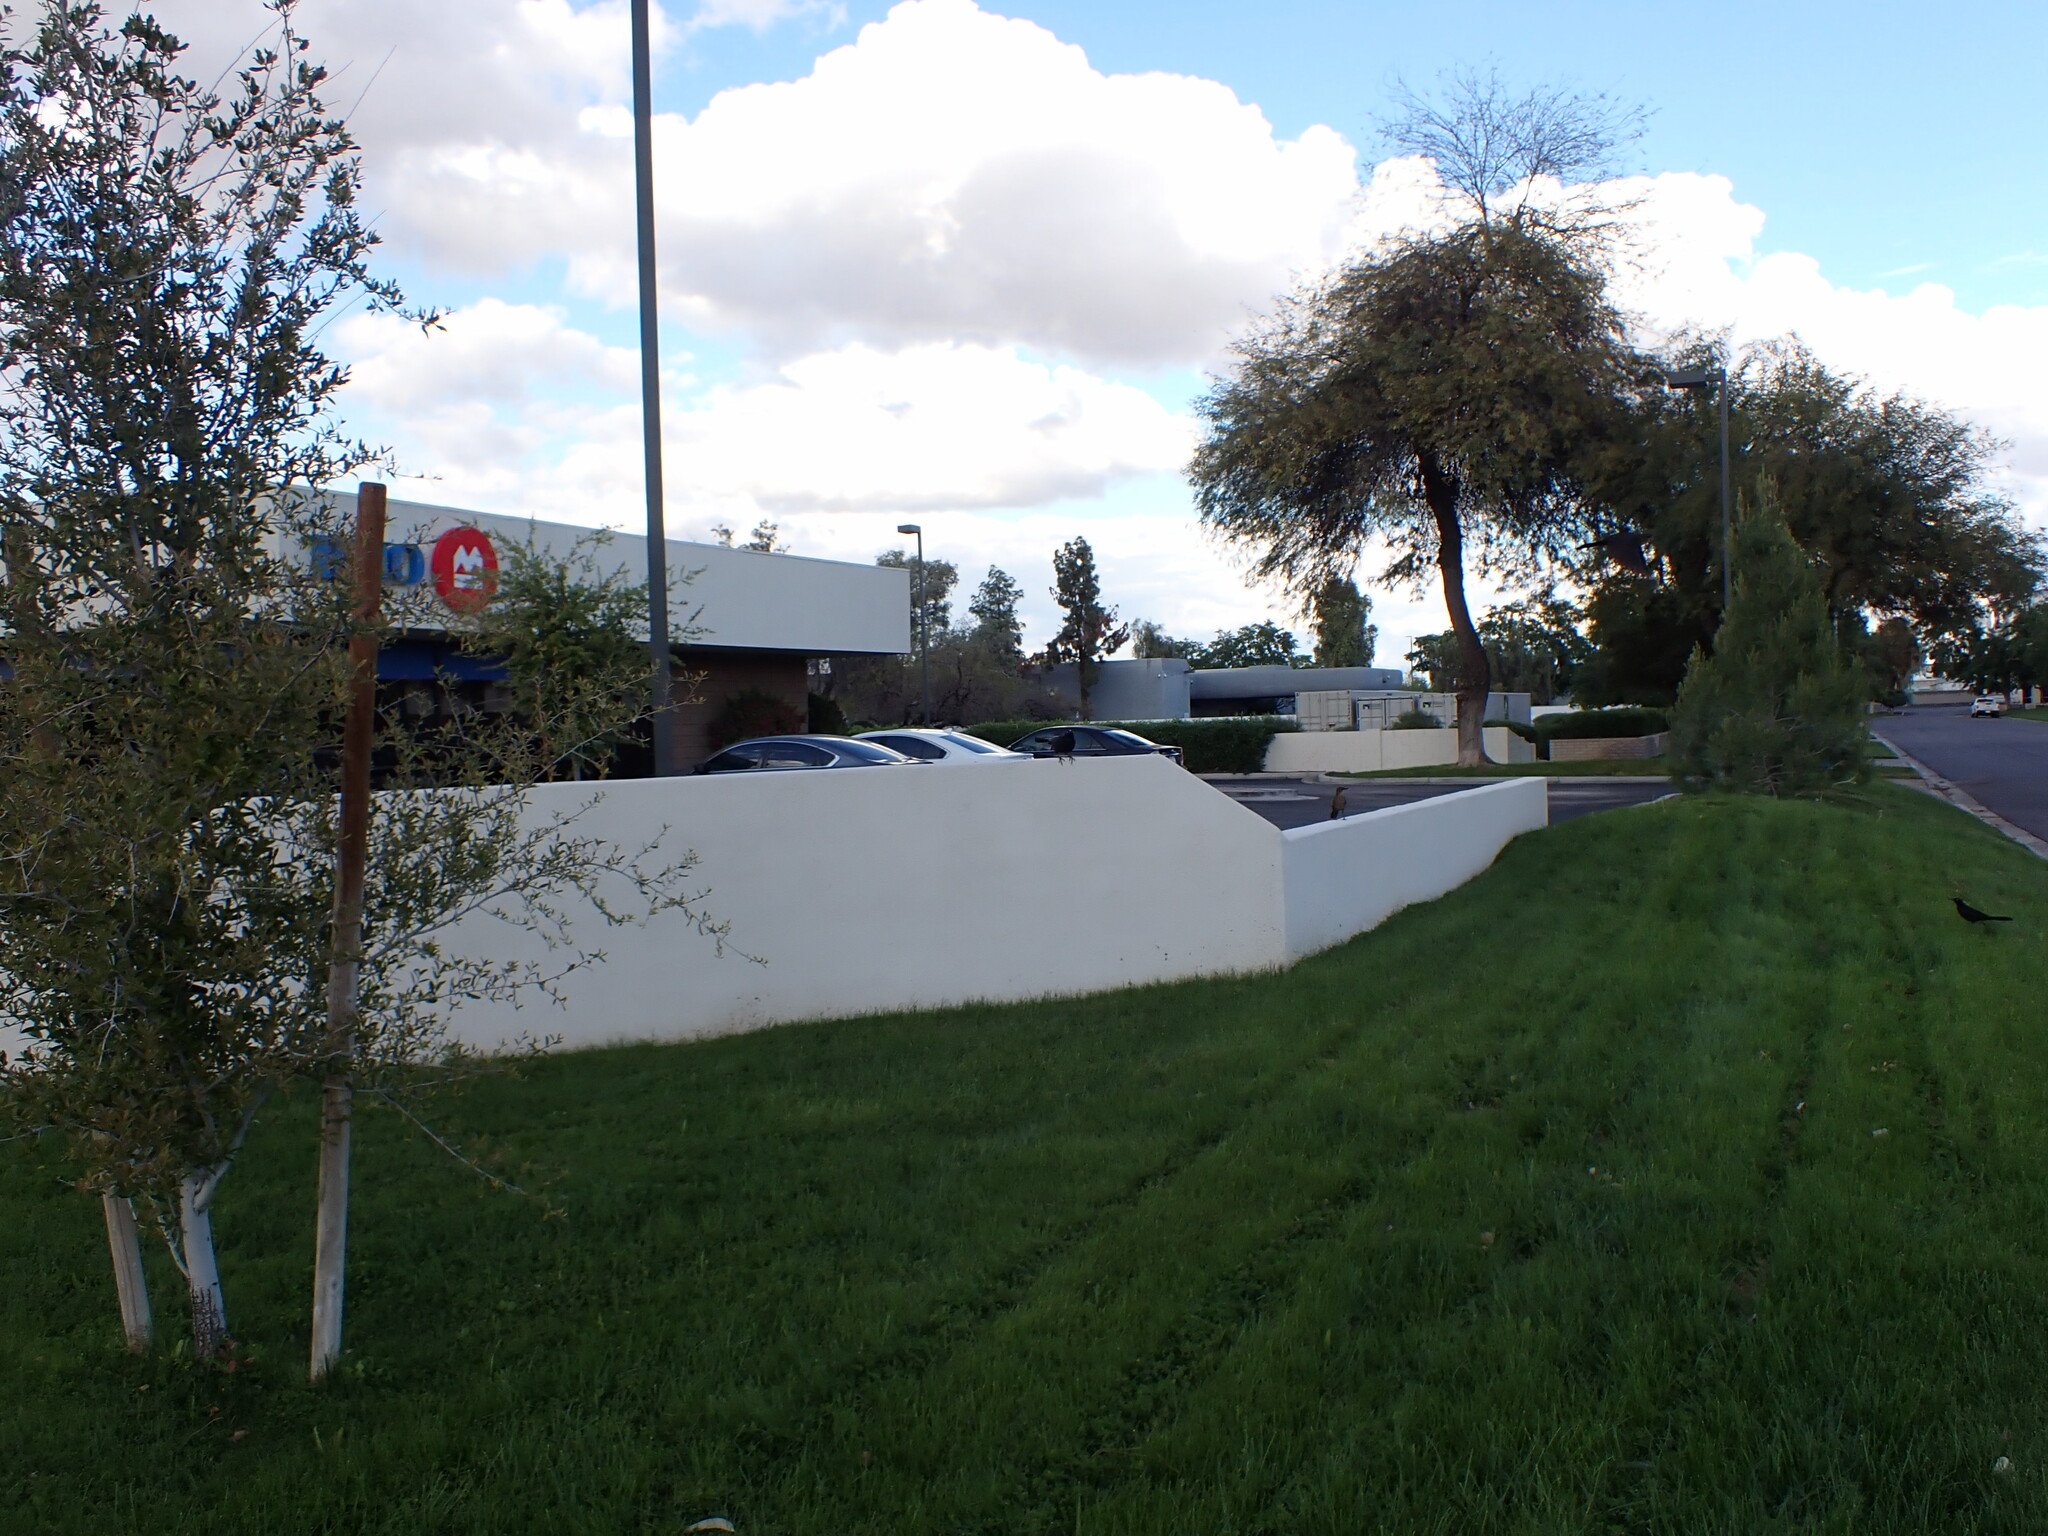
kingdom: Animalia
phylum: Chordata
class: Aves
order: Passeriformes
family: Icteridae
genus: Quiscalus
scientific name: Quiscalus mexicanus
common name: Great-tailed grackle
